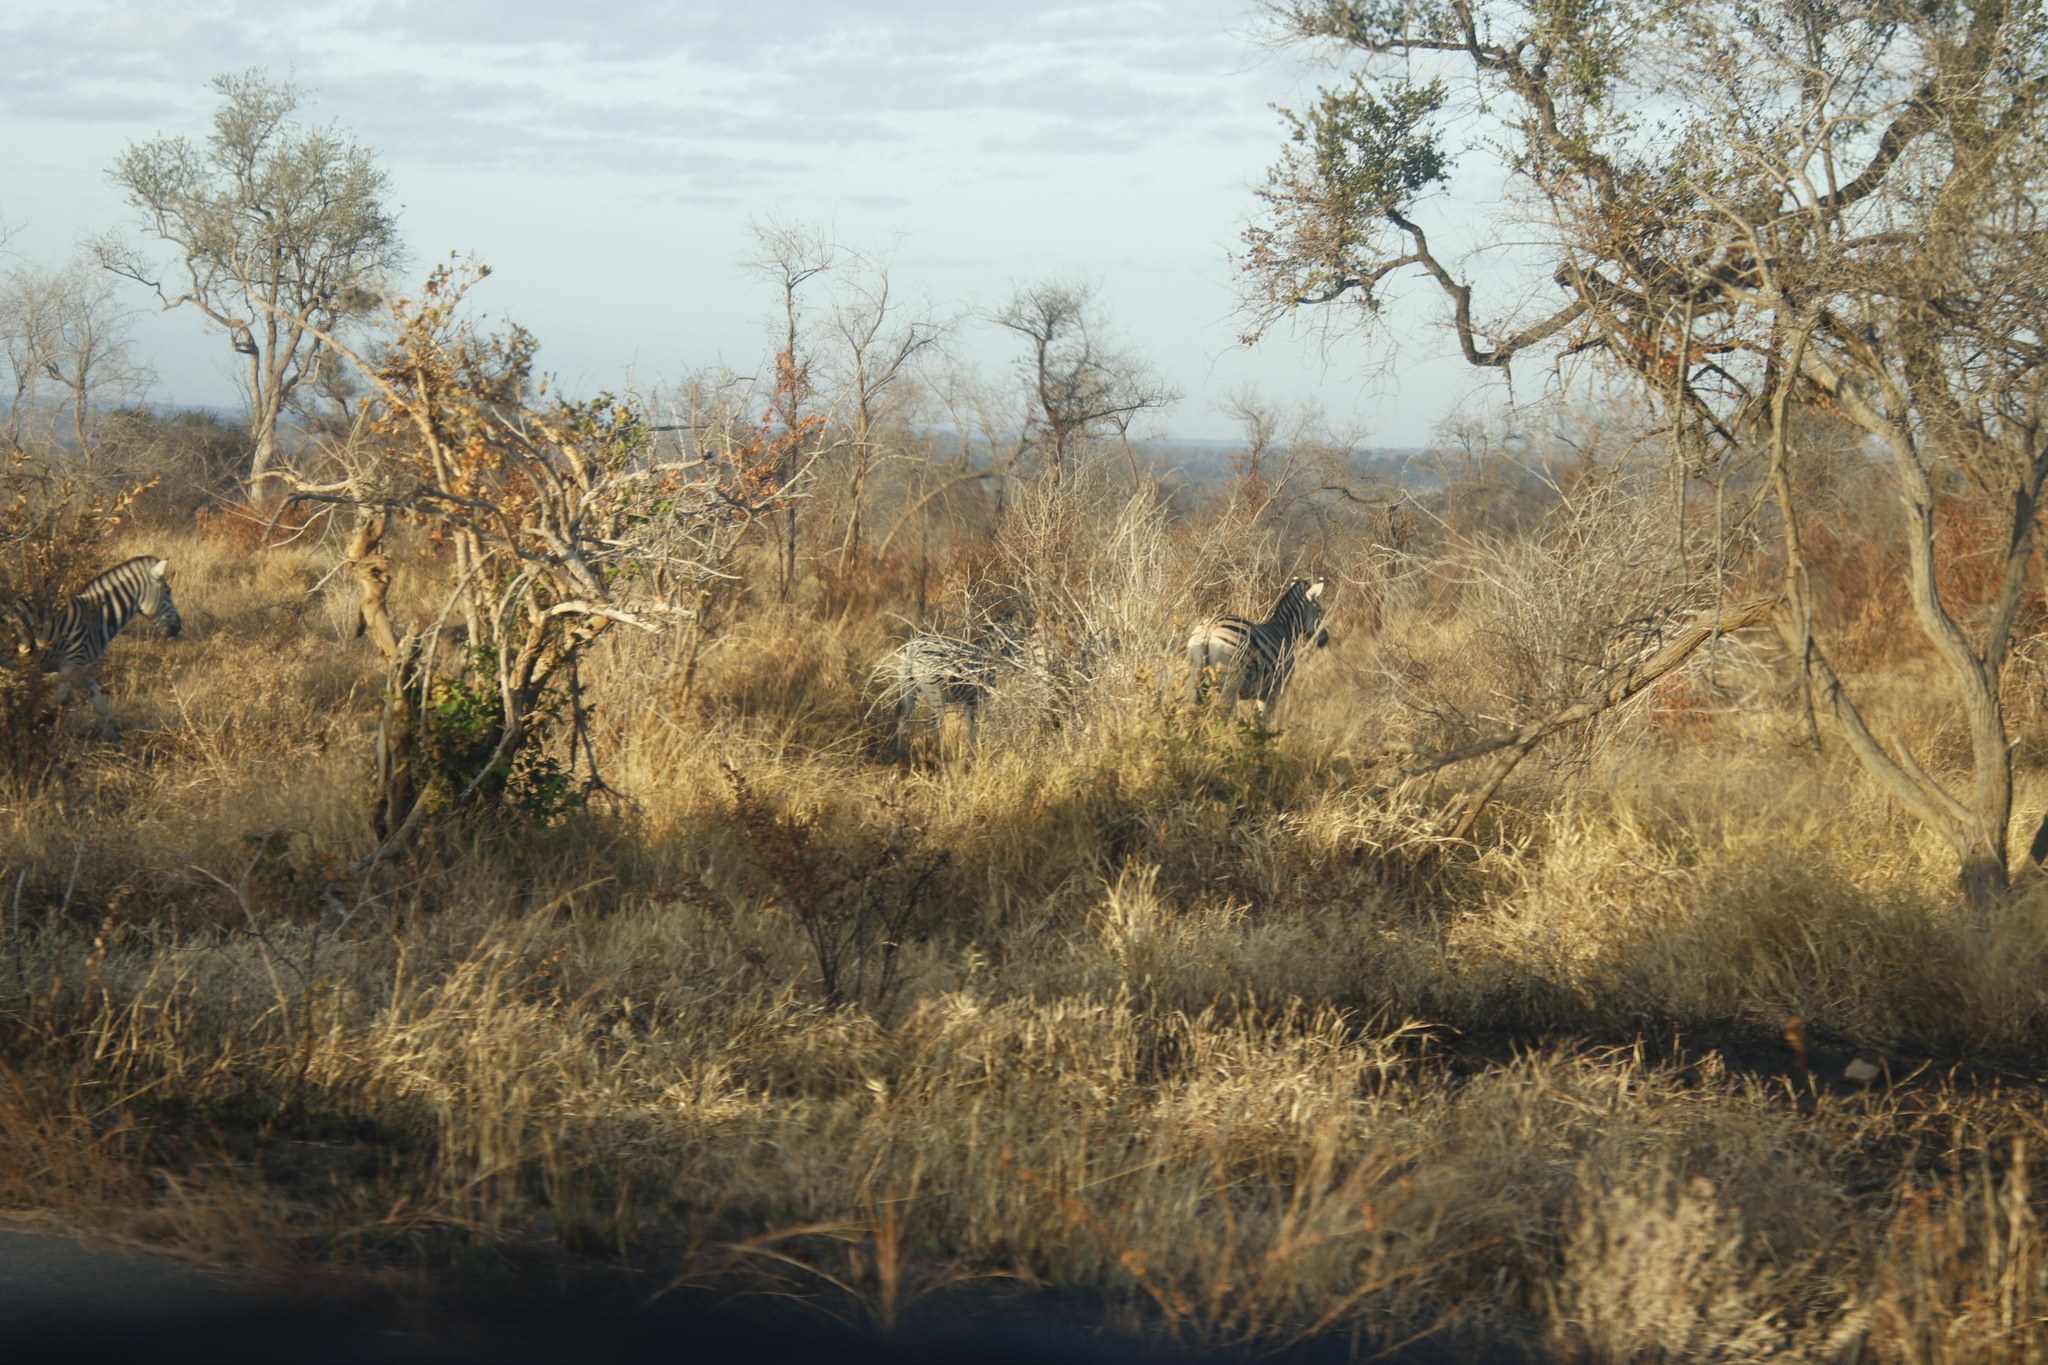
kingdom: Animalia
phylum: Chordata
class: Mammalia
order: Perissodactyla
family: Equidae
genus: Equus
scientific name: Equus quagga
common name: Plains zebra
